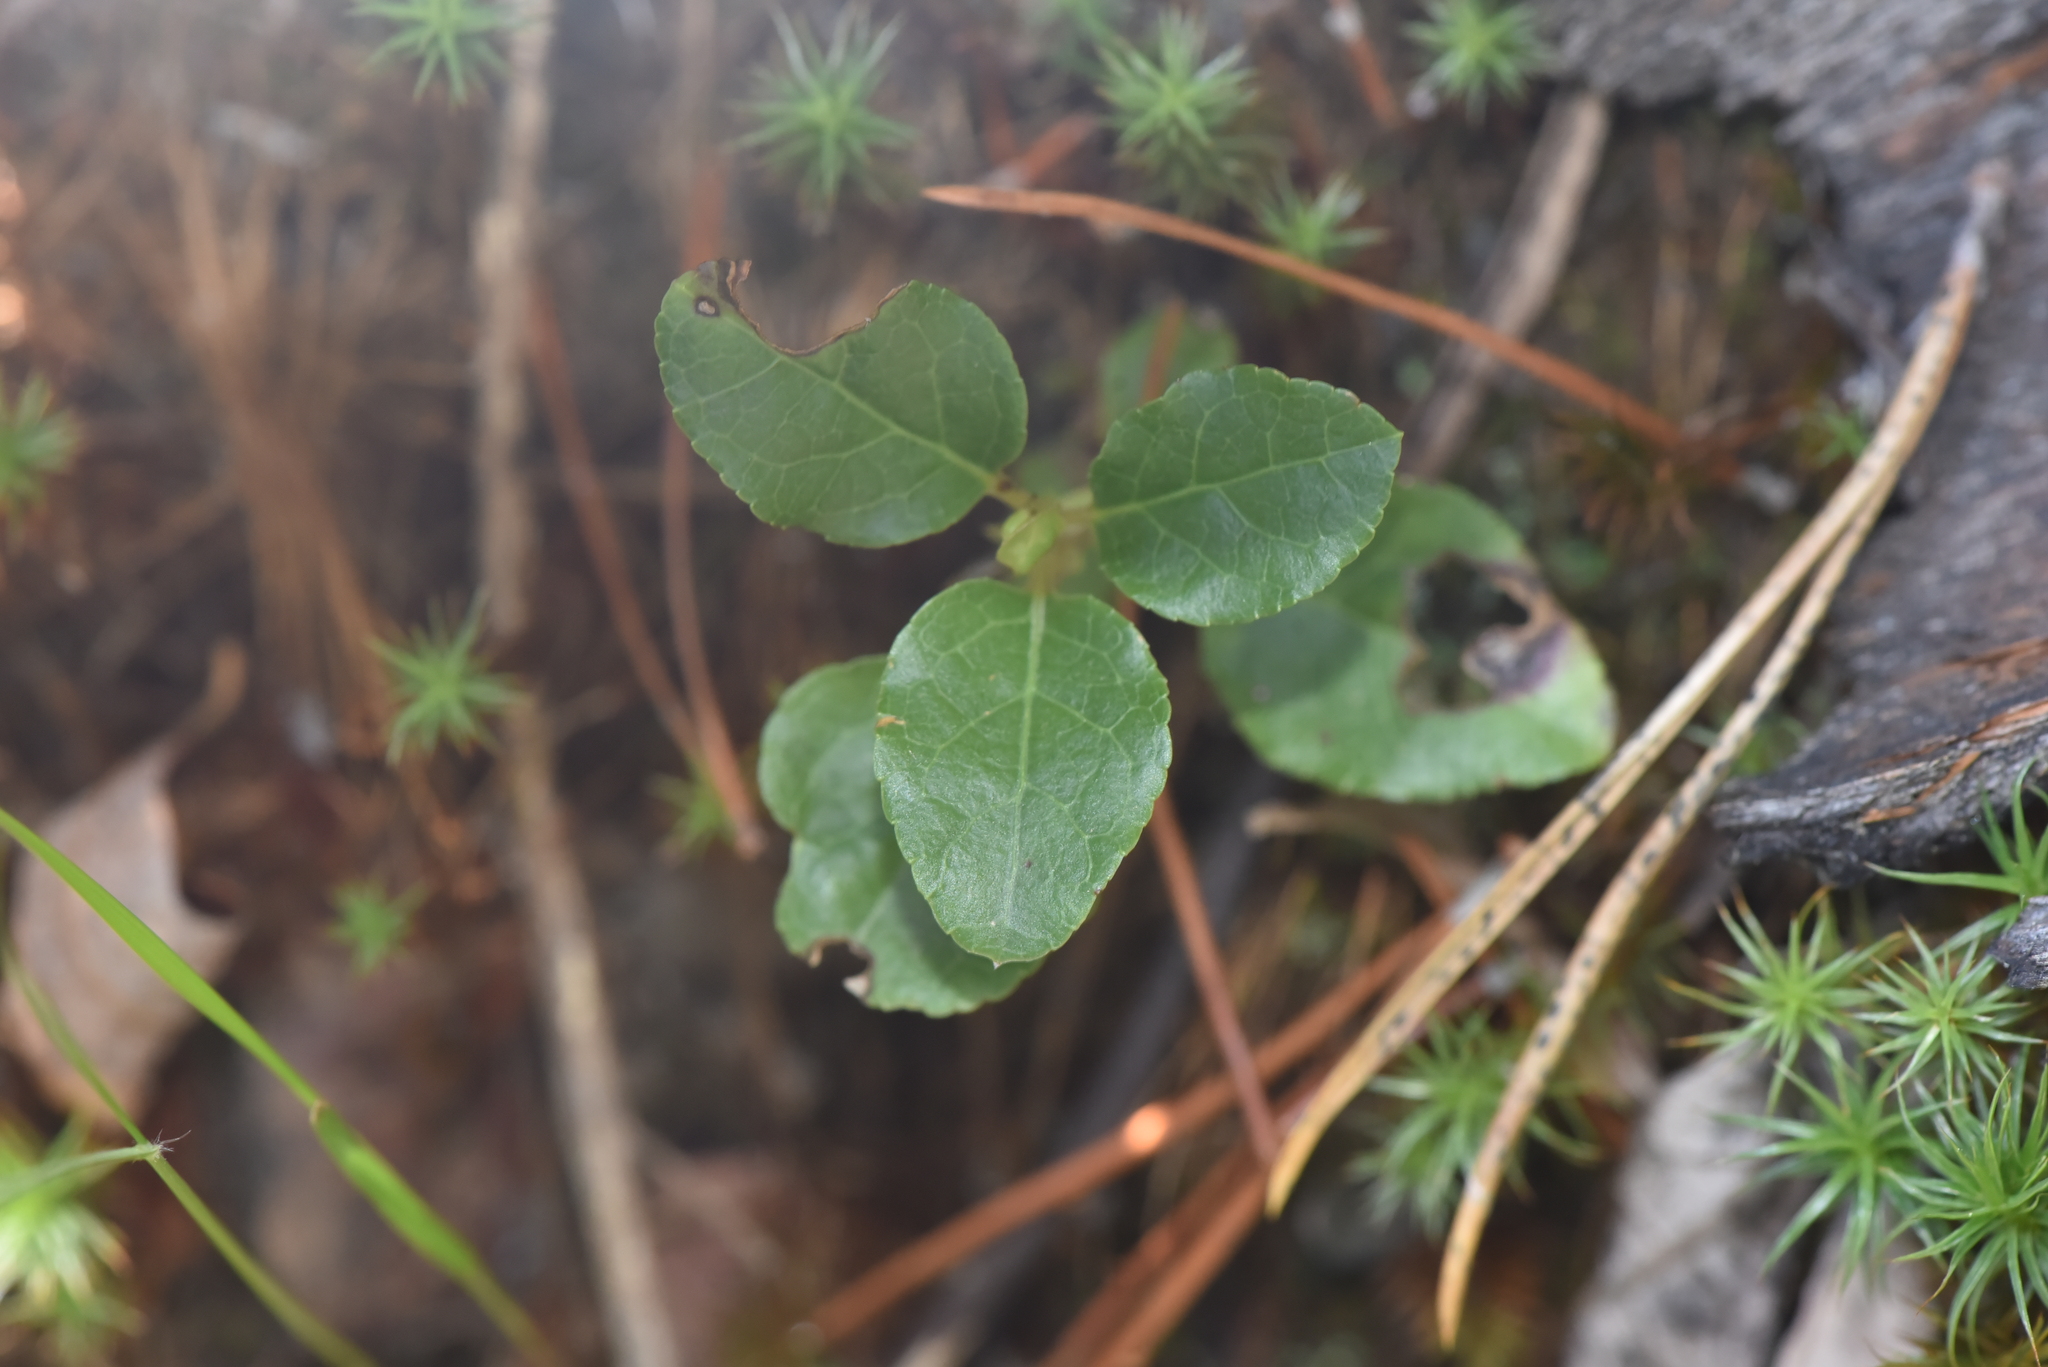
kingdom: Plantae
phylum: Tracheophyta
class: Magnoliopsida
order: Ericales
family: Ericaceae
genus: Orthilia
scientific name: Orthilia secunda
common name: One-sided orthilia
